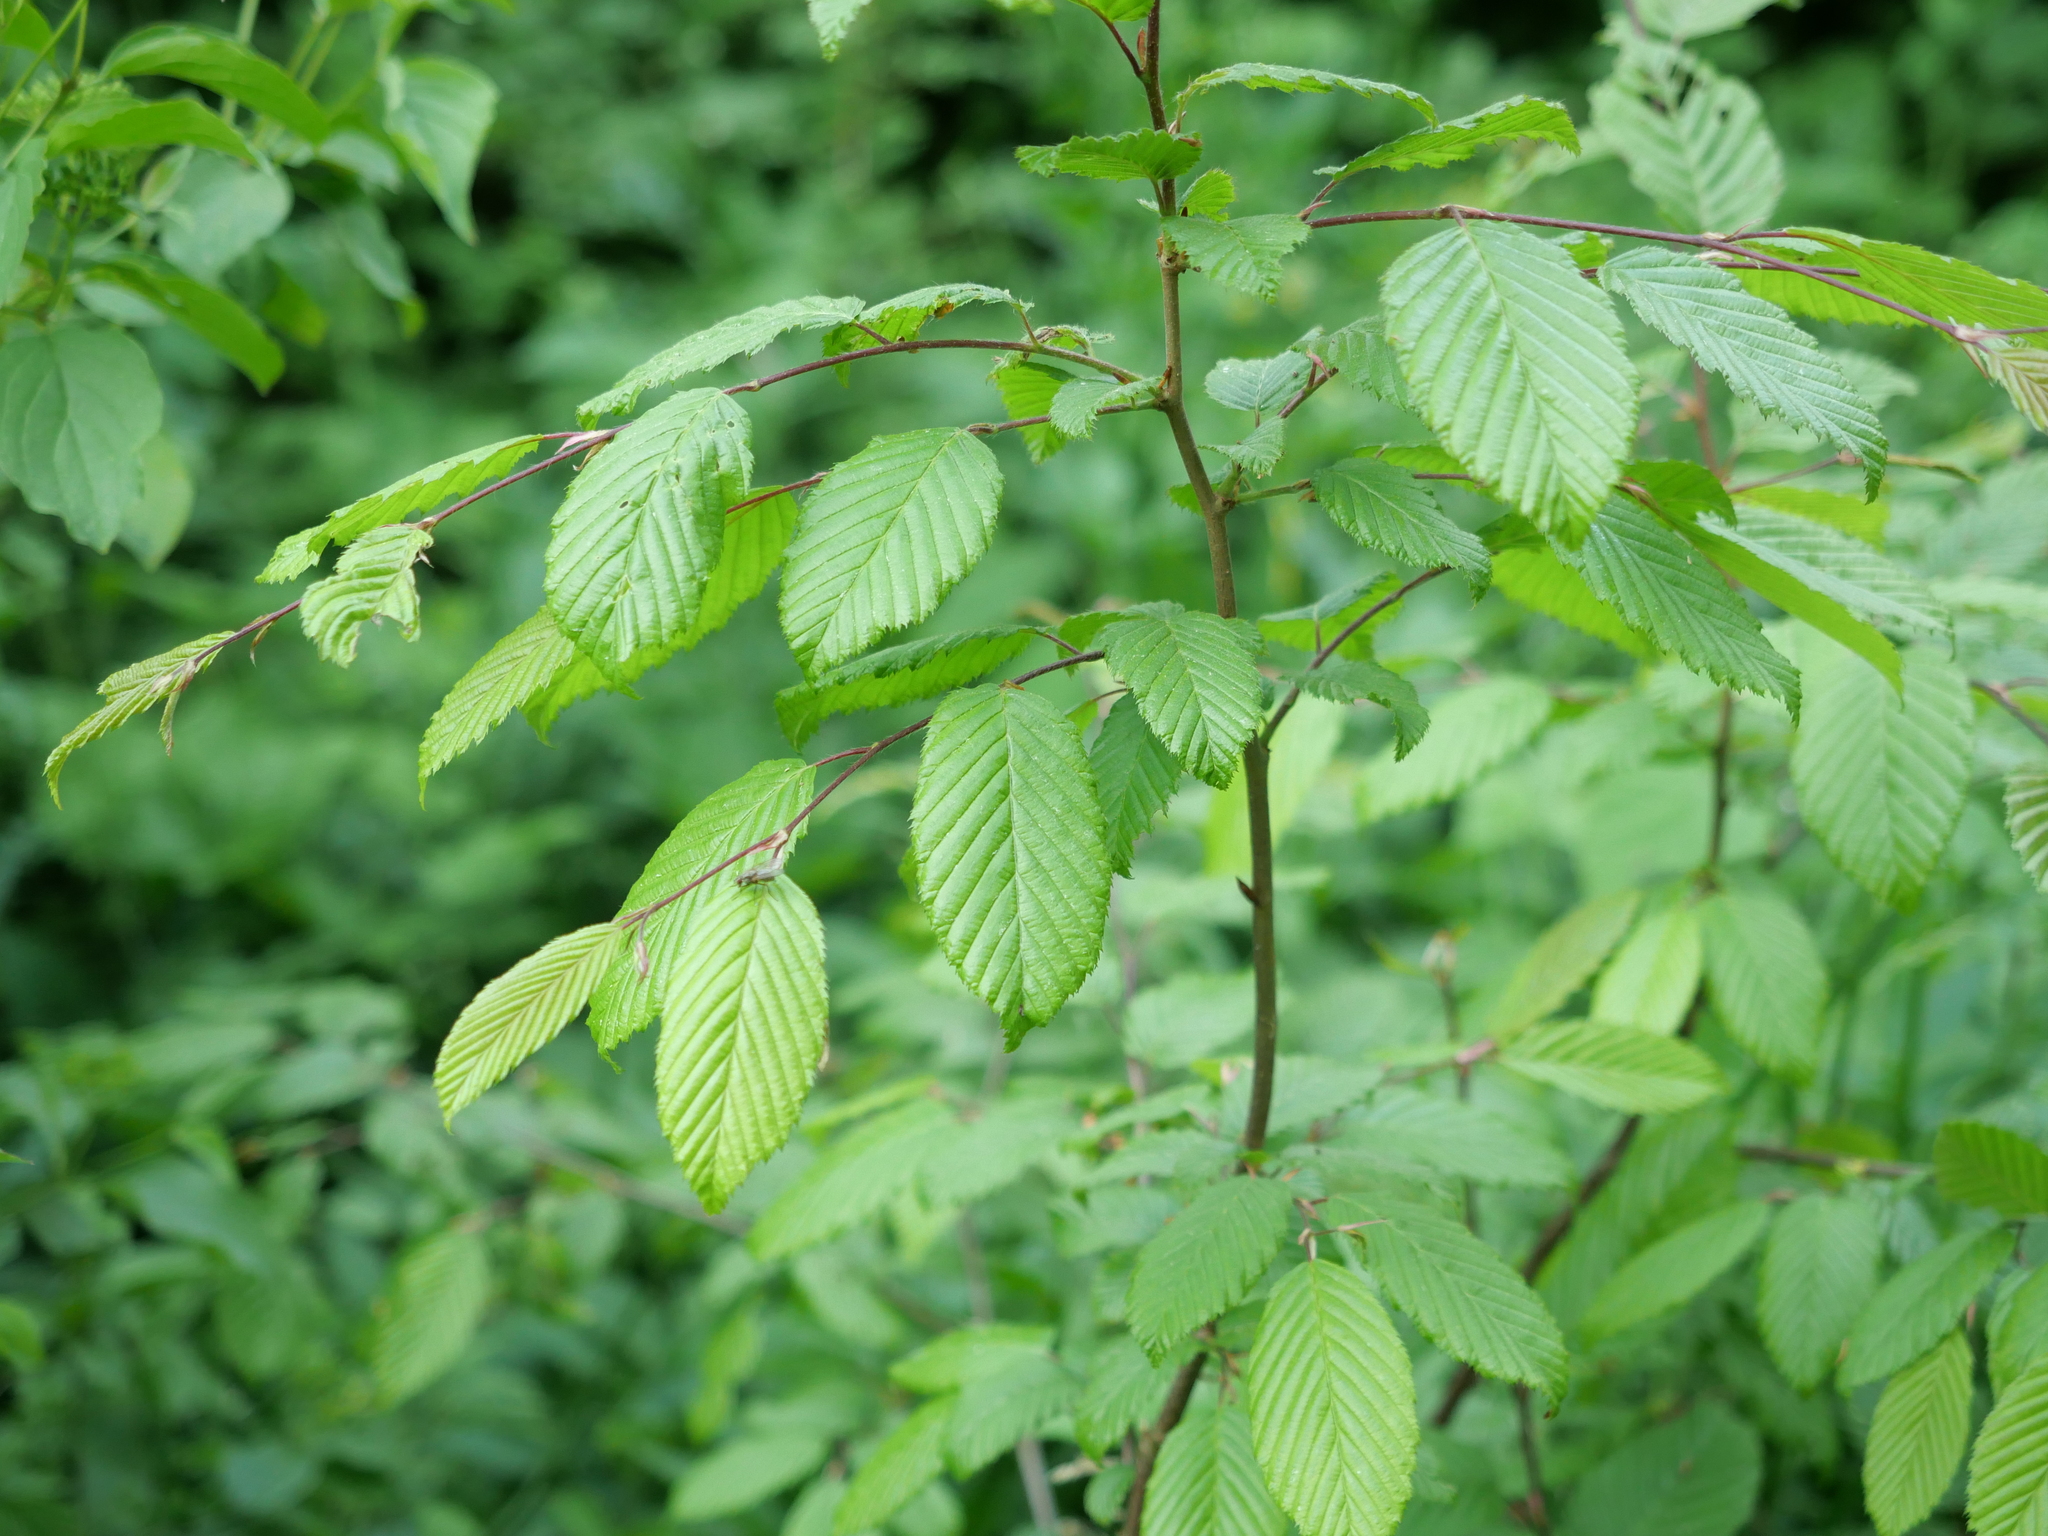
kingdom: Plantae
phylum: Tracheophyta
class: Magnoliopsida
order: Fagales
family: Betulaceae
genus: Carpinus
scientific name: Carpinus betulus
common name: Hornbeam
